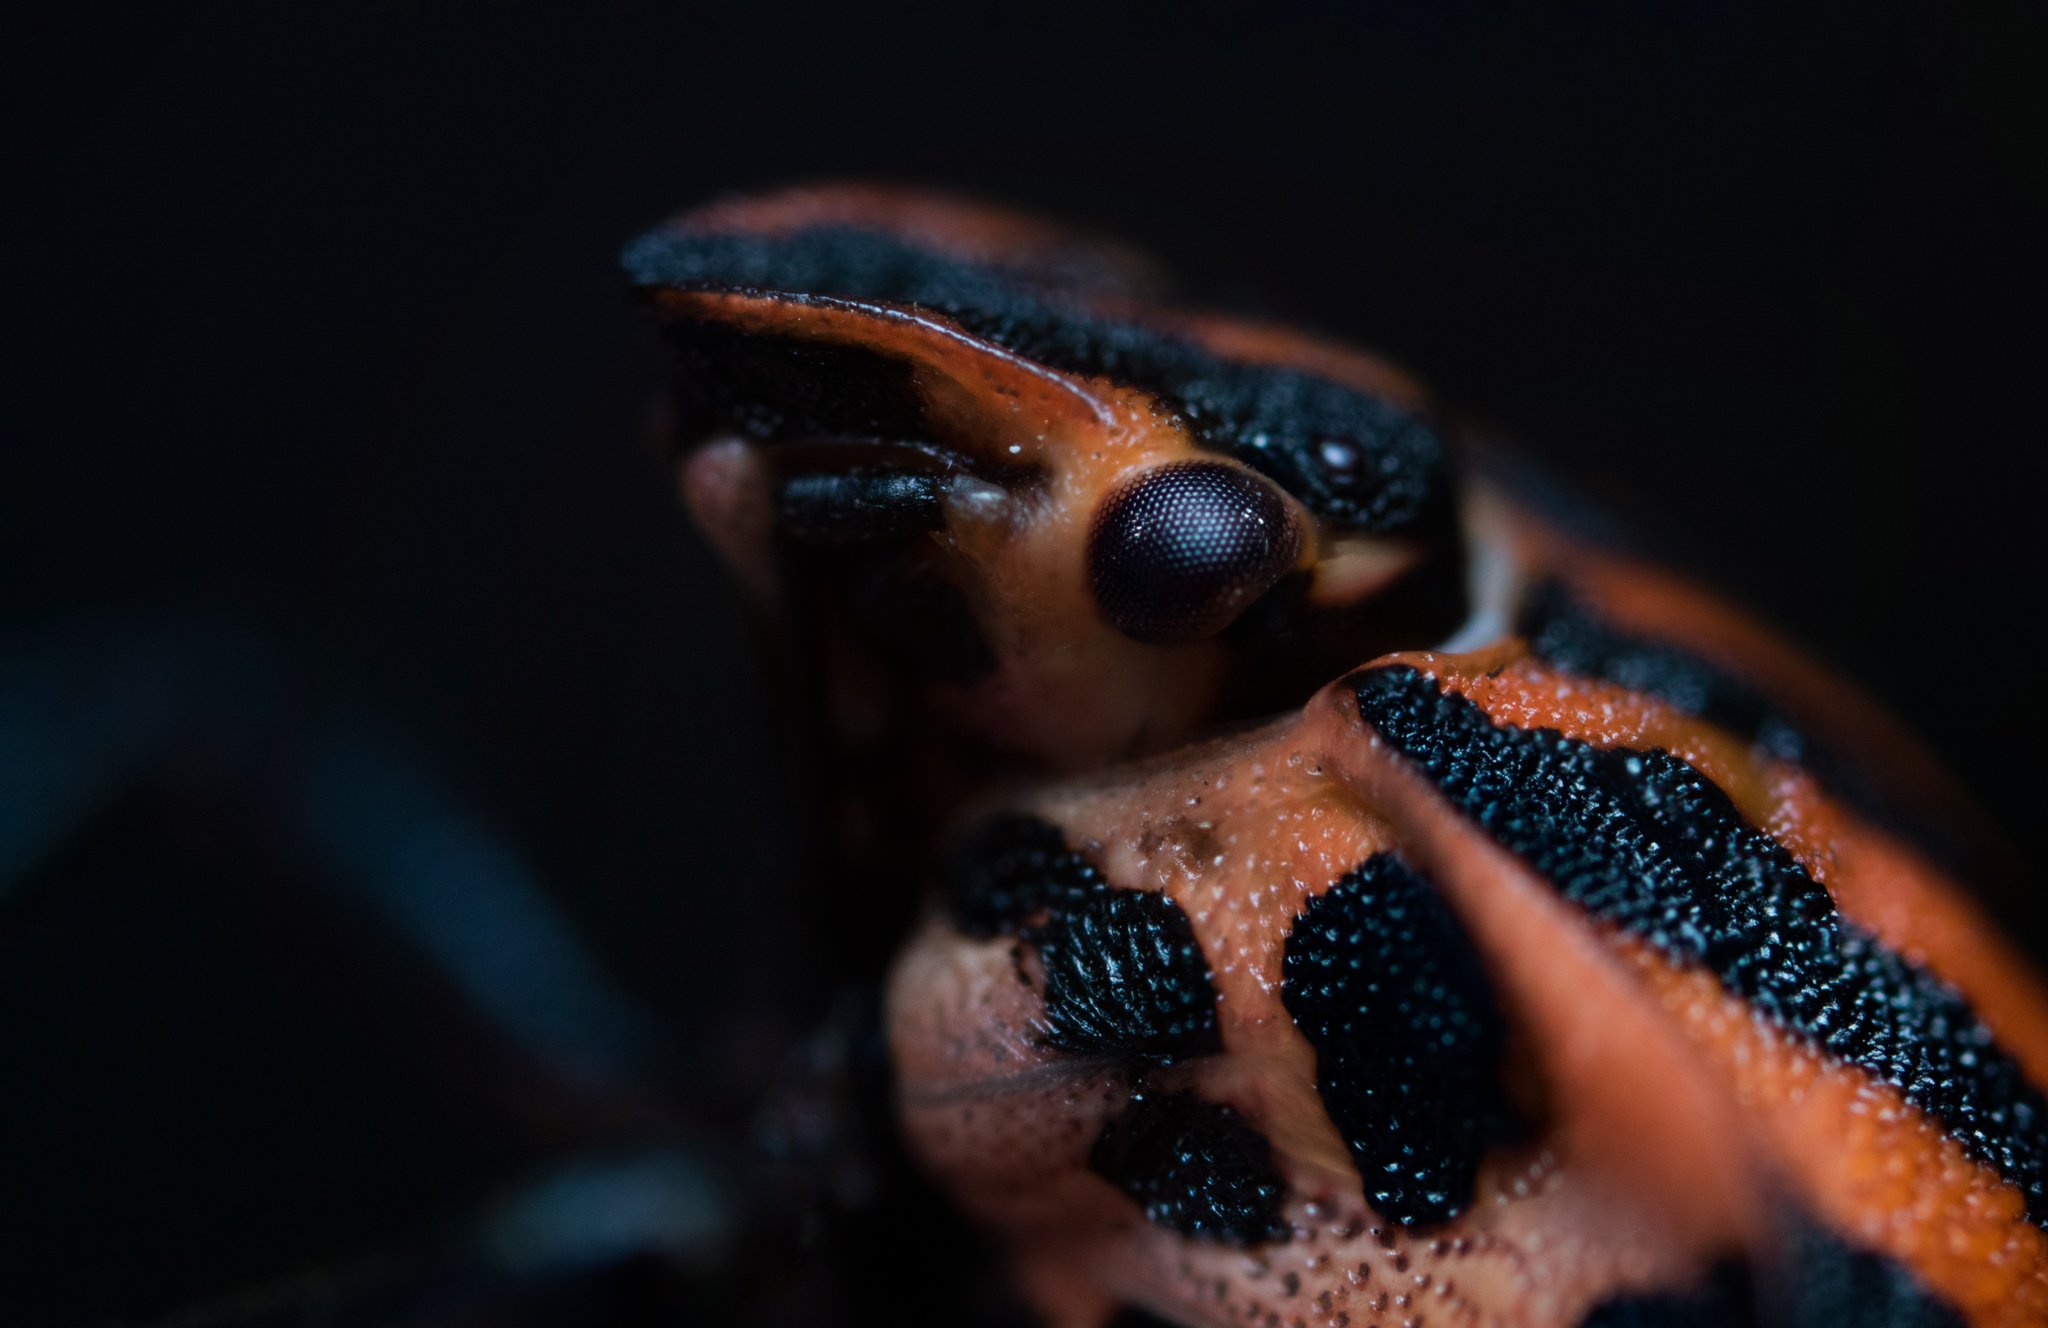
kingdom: Animalia
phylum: Arthropoda
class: Insecta
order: Hemiptera
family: Pentatomidae
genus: Graphosoma
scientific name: Graphosoma italicum
